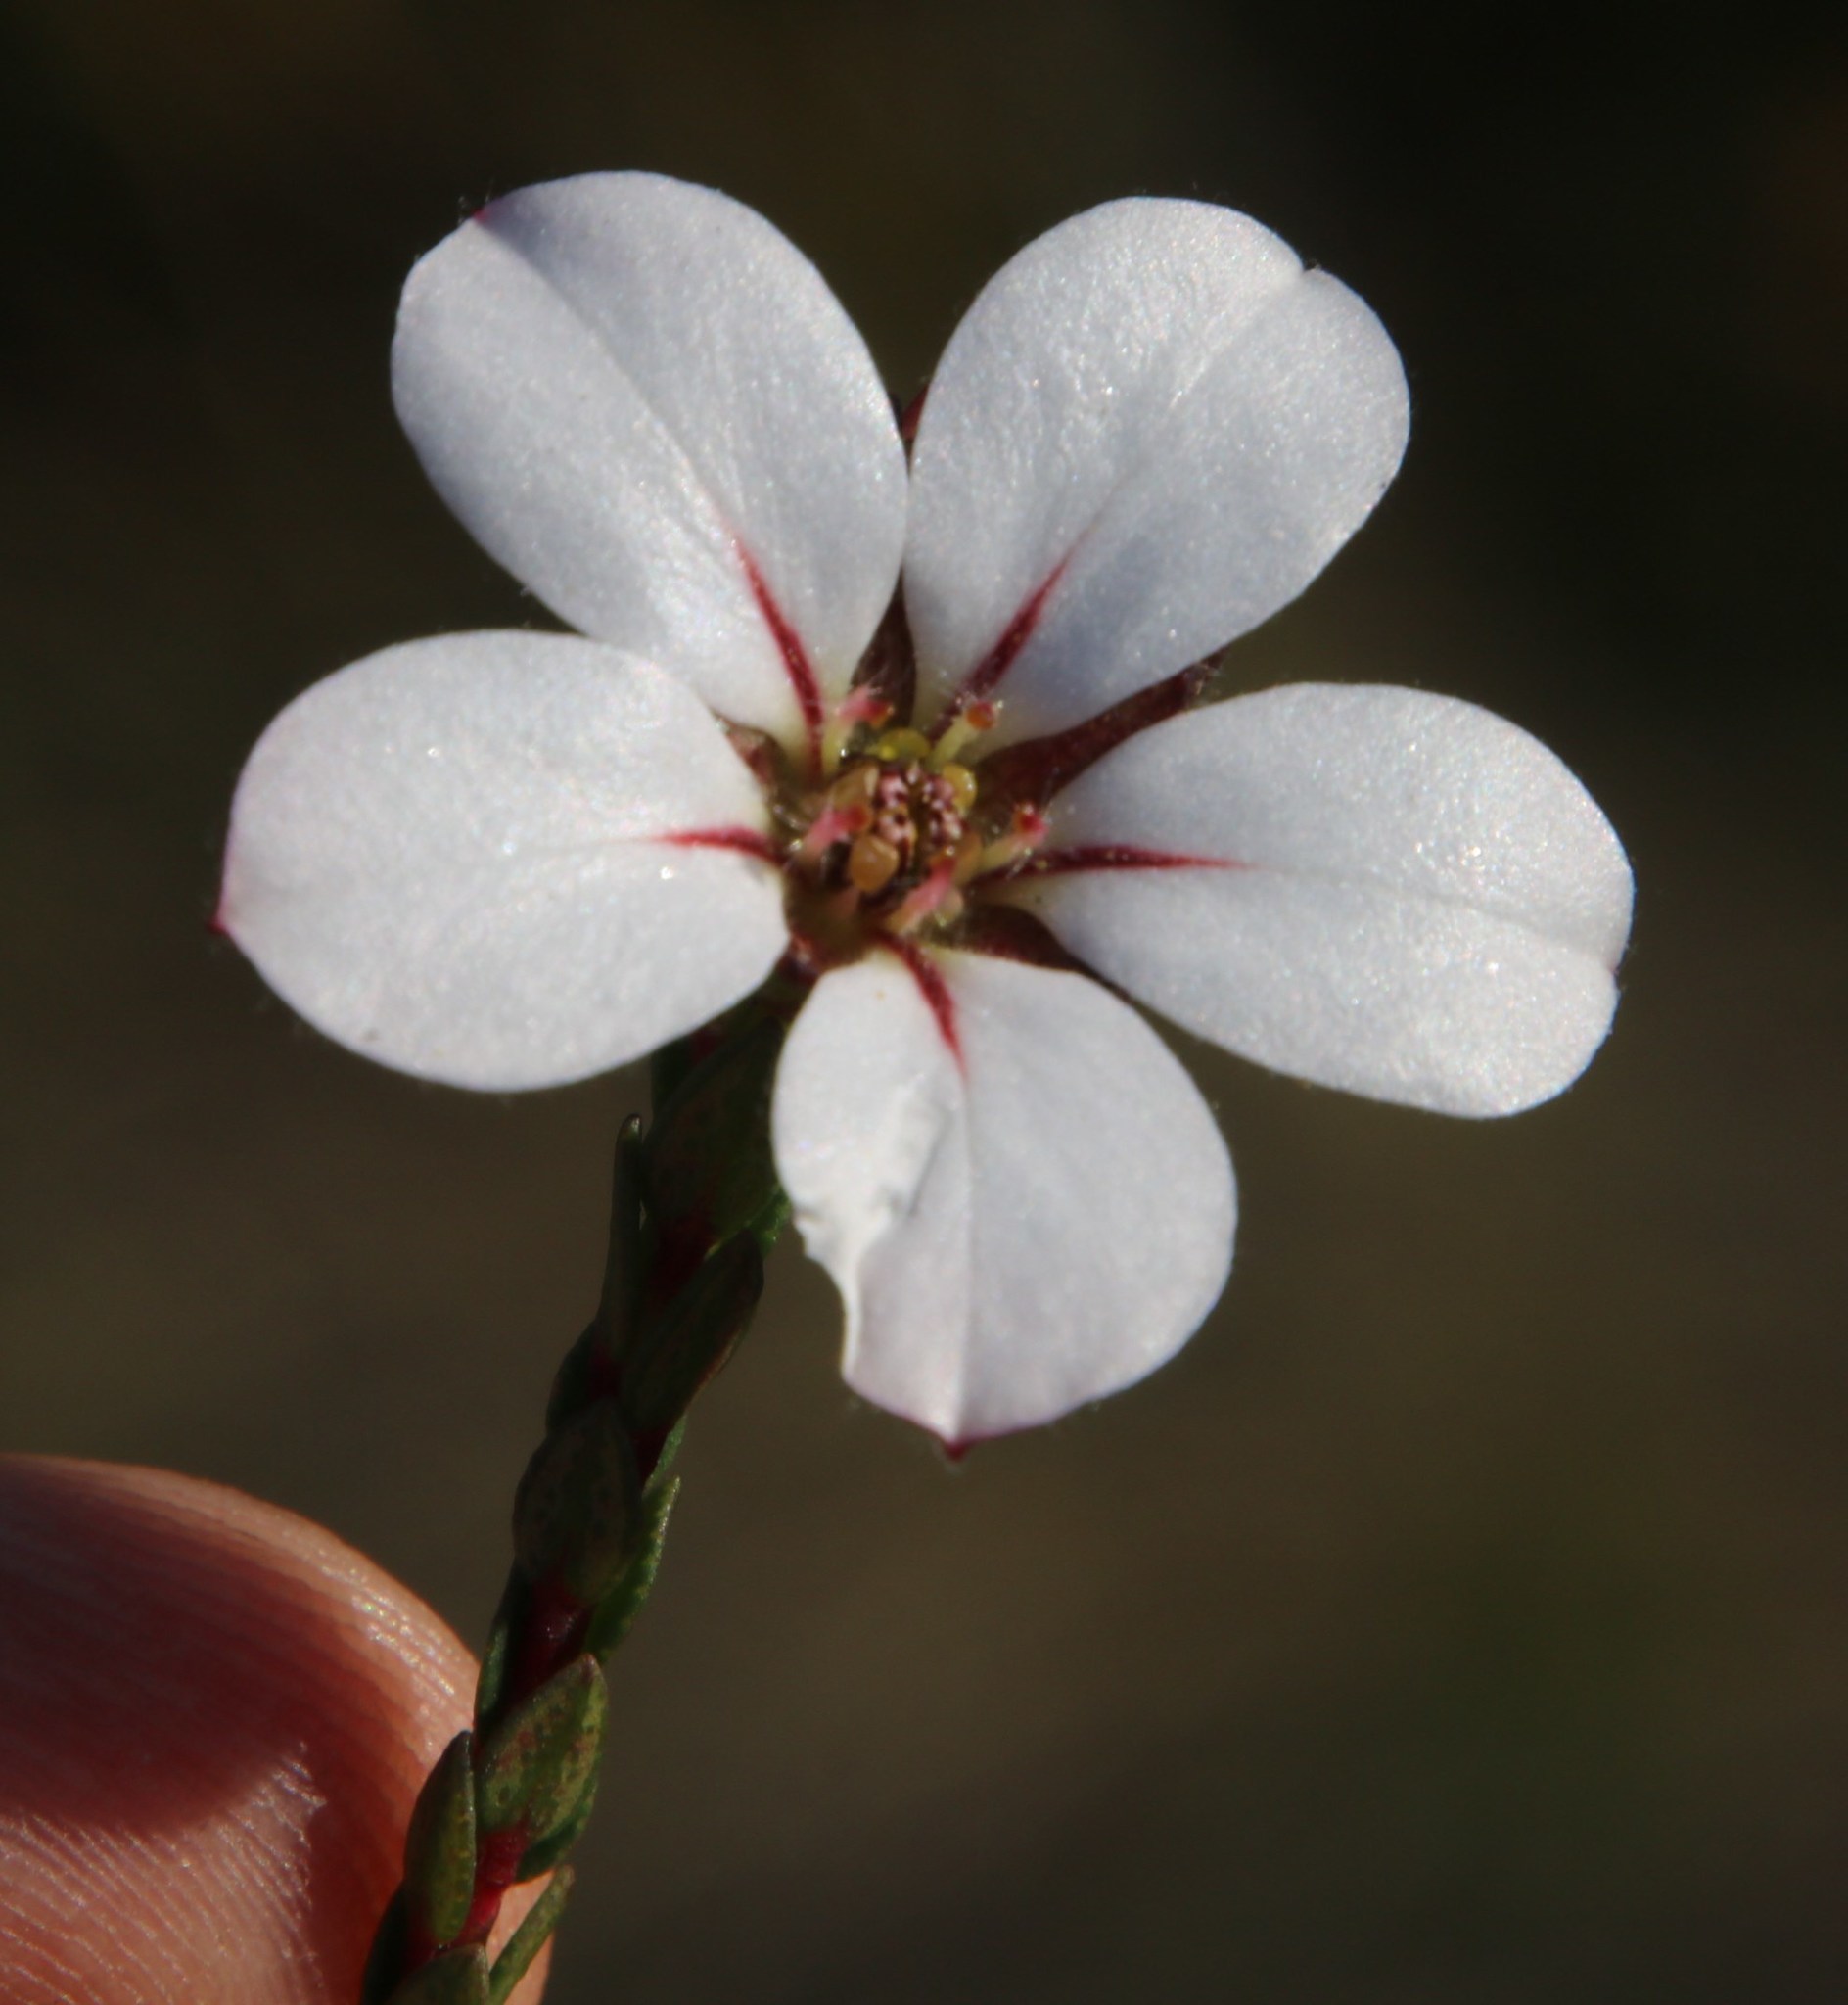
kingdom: Plantae
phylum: Tracheophyta
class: Magnoliopsida
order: Sapindales
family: Rutaceae
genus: Adenandra
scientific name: Adenandra villosa
